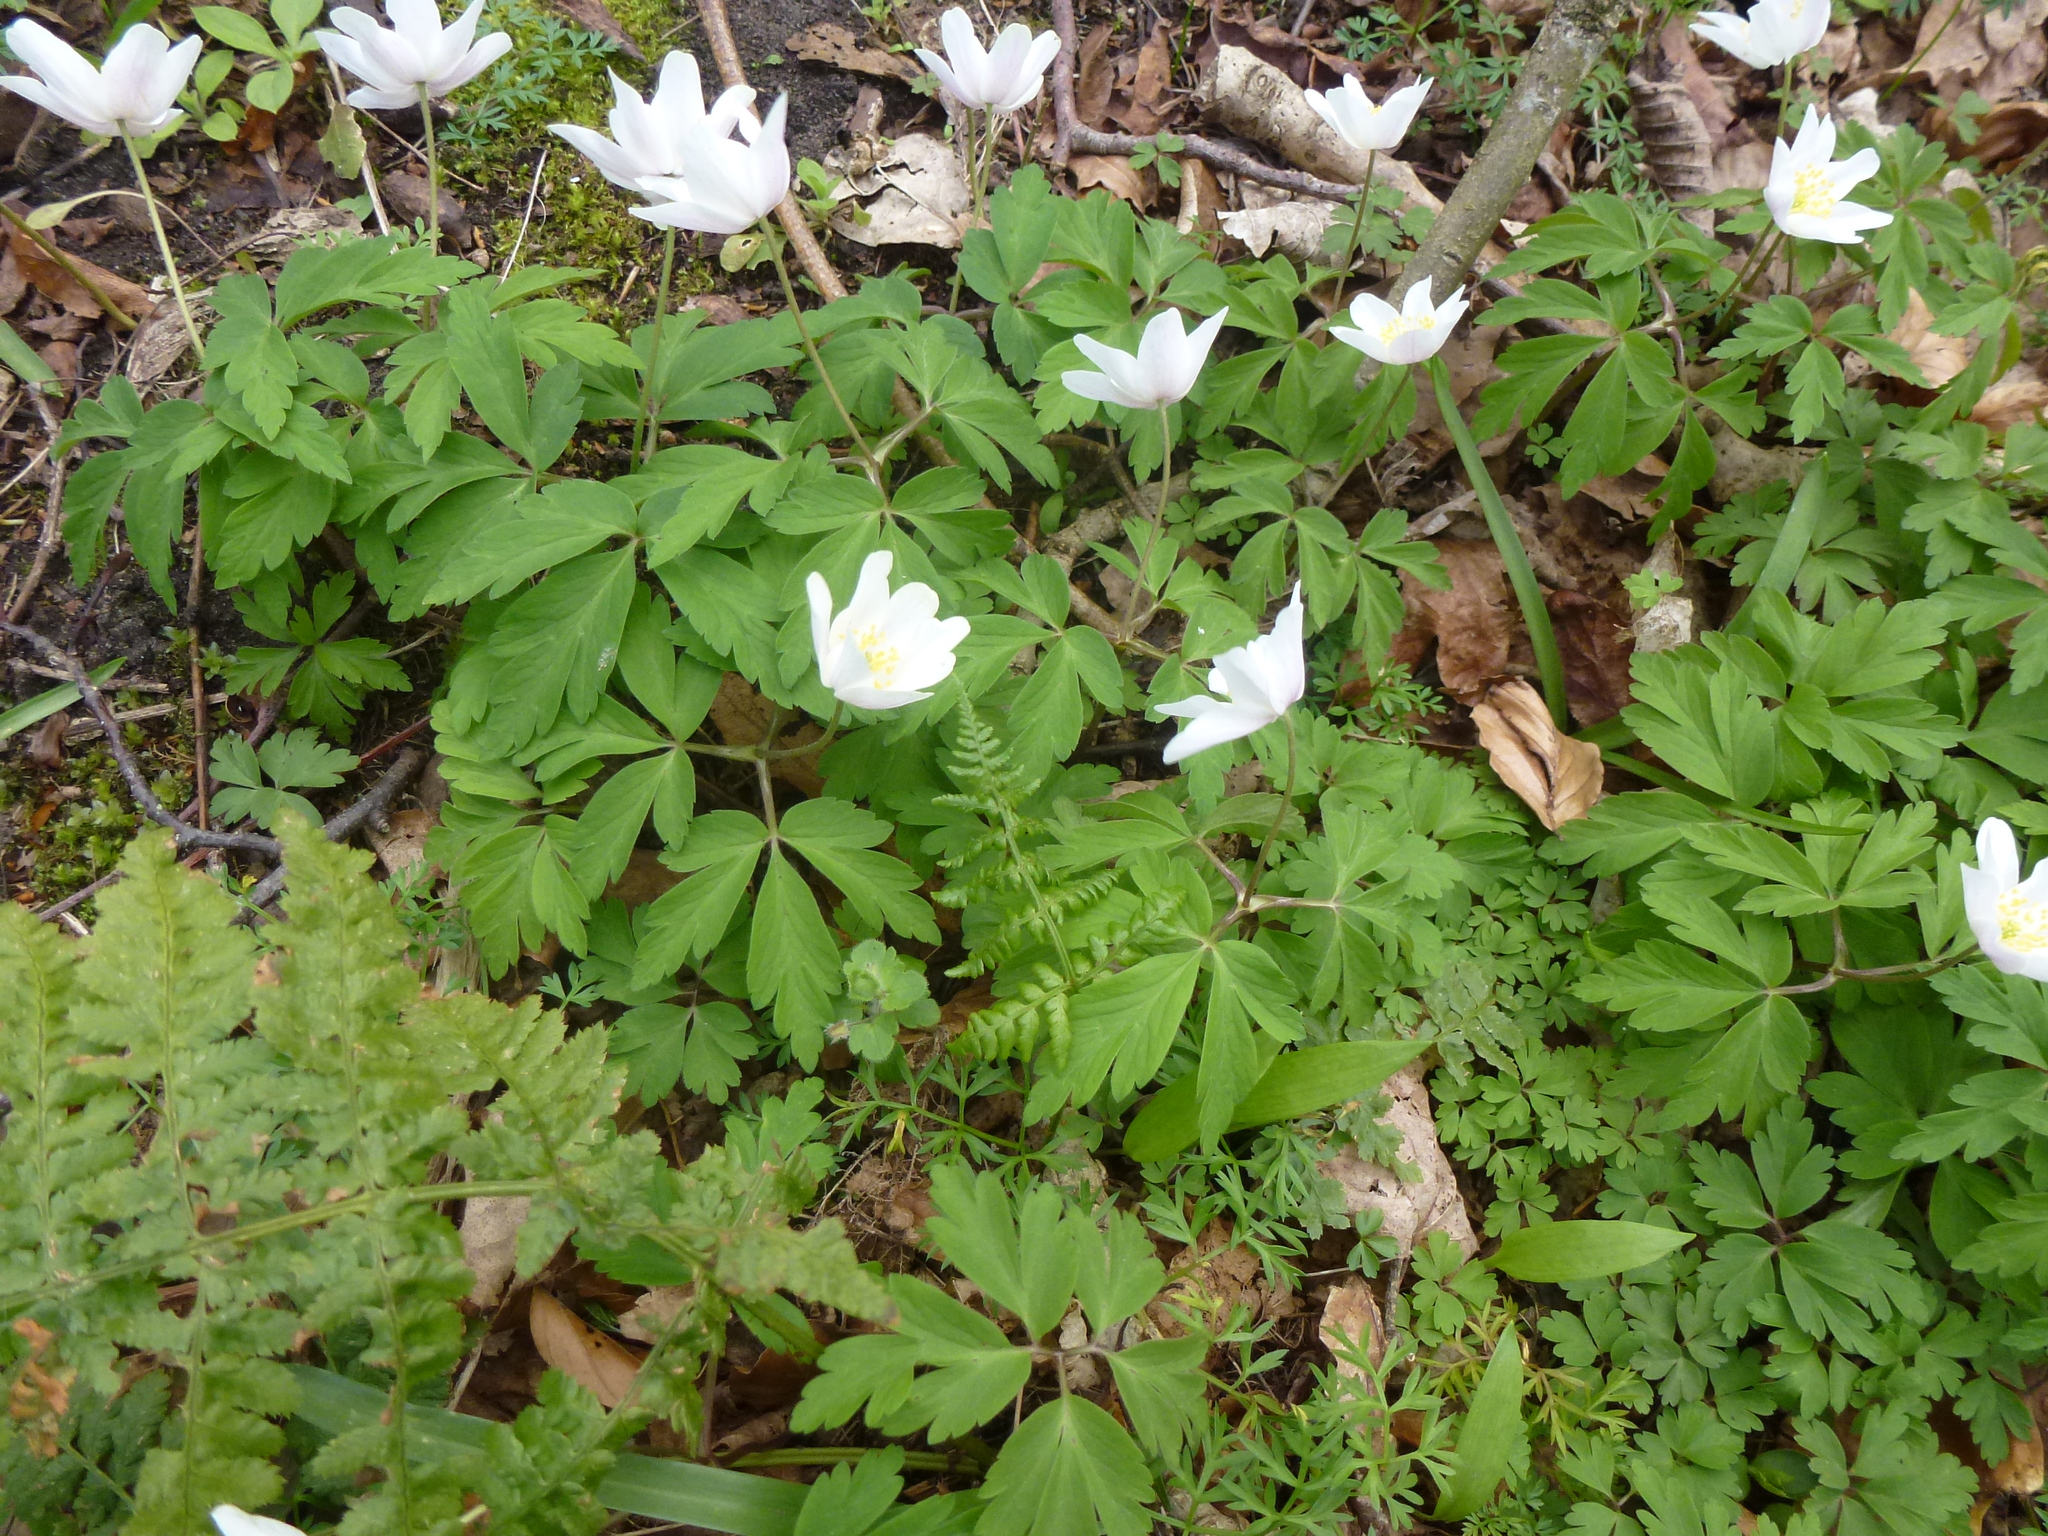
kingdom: Plantae
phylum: Tracheophyta
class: Magnoliopsida
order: Ranunculales
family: Ranunculaceae
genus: Anemone
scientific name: Anemone nemorosa
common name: Wood anemone
